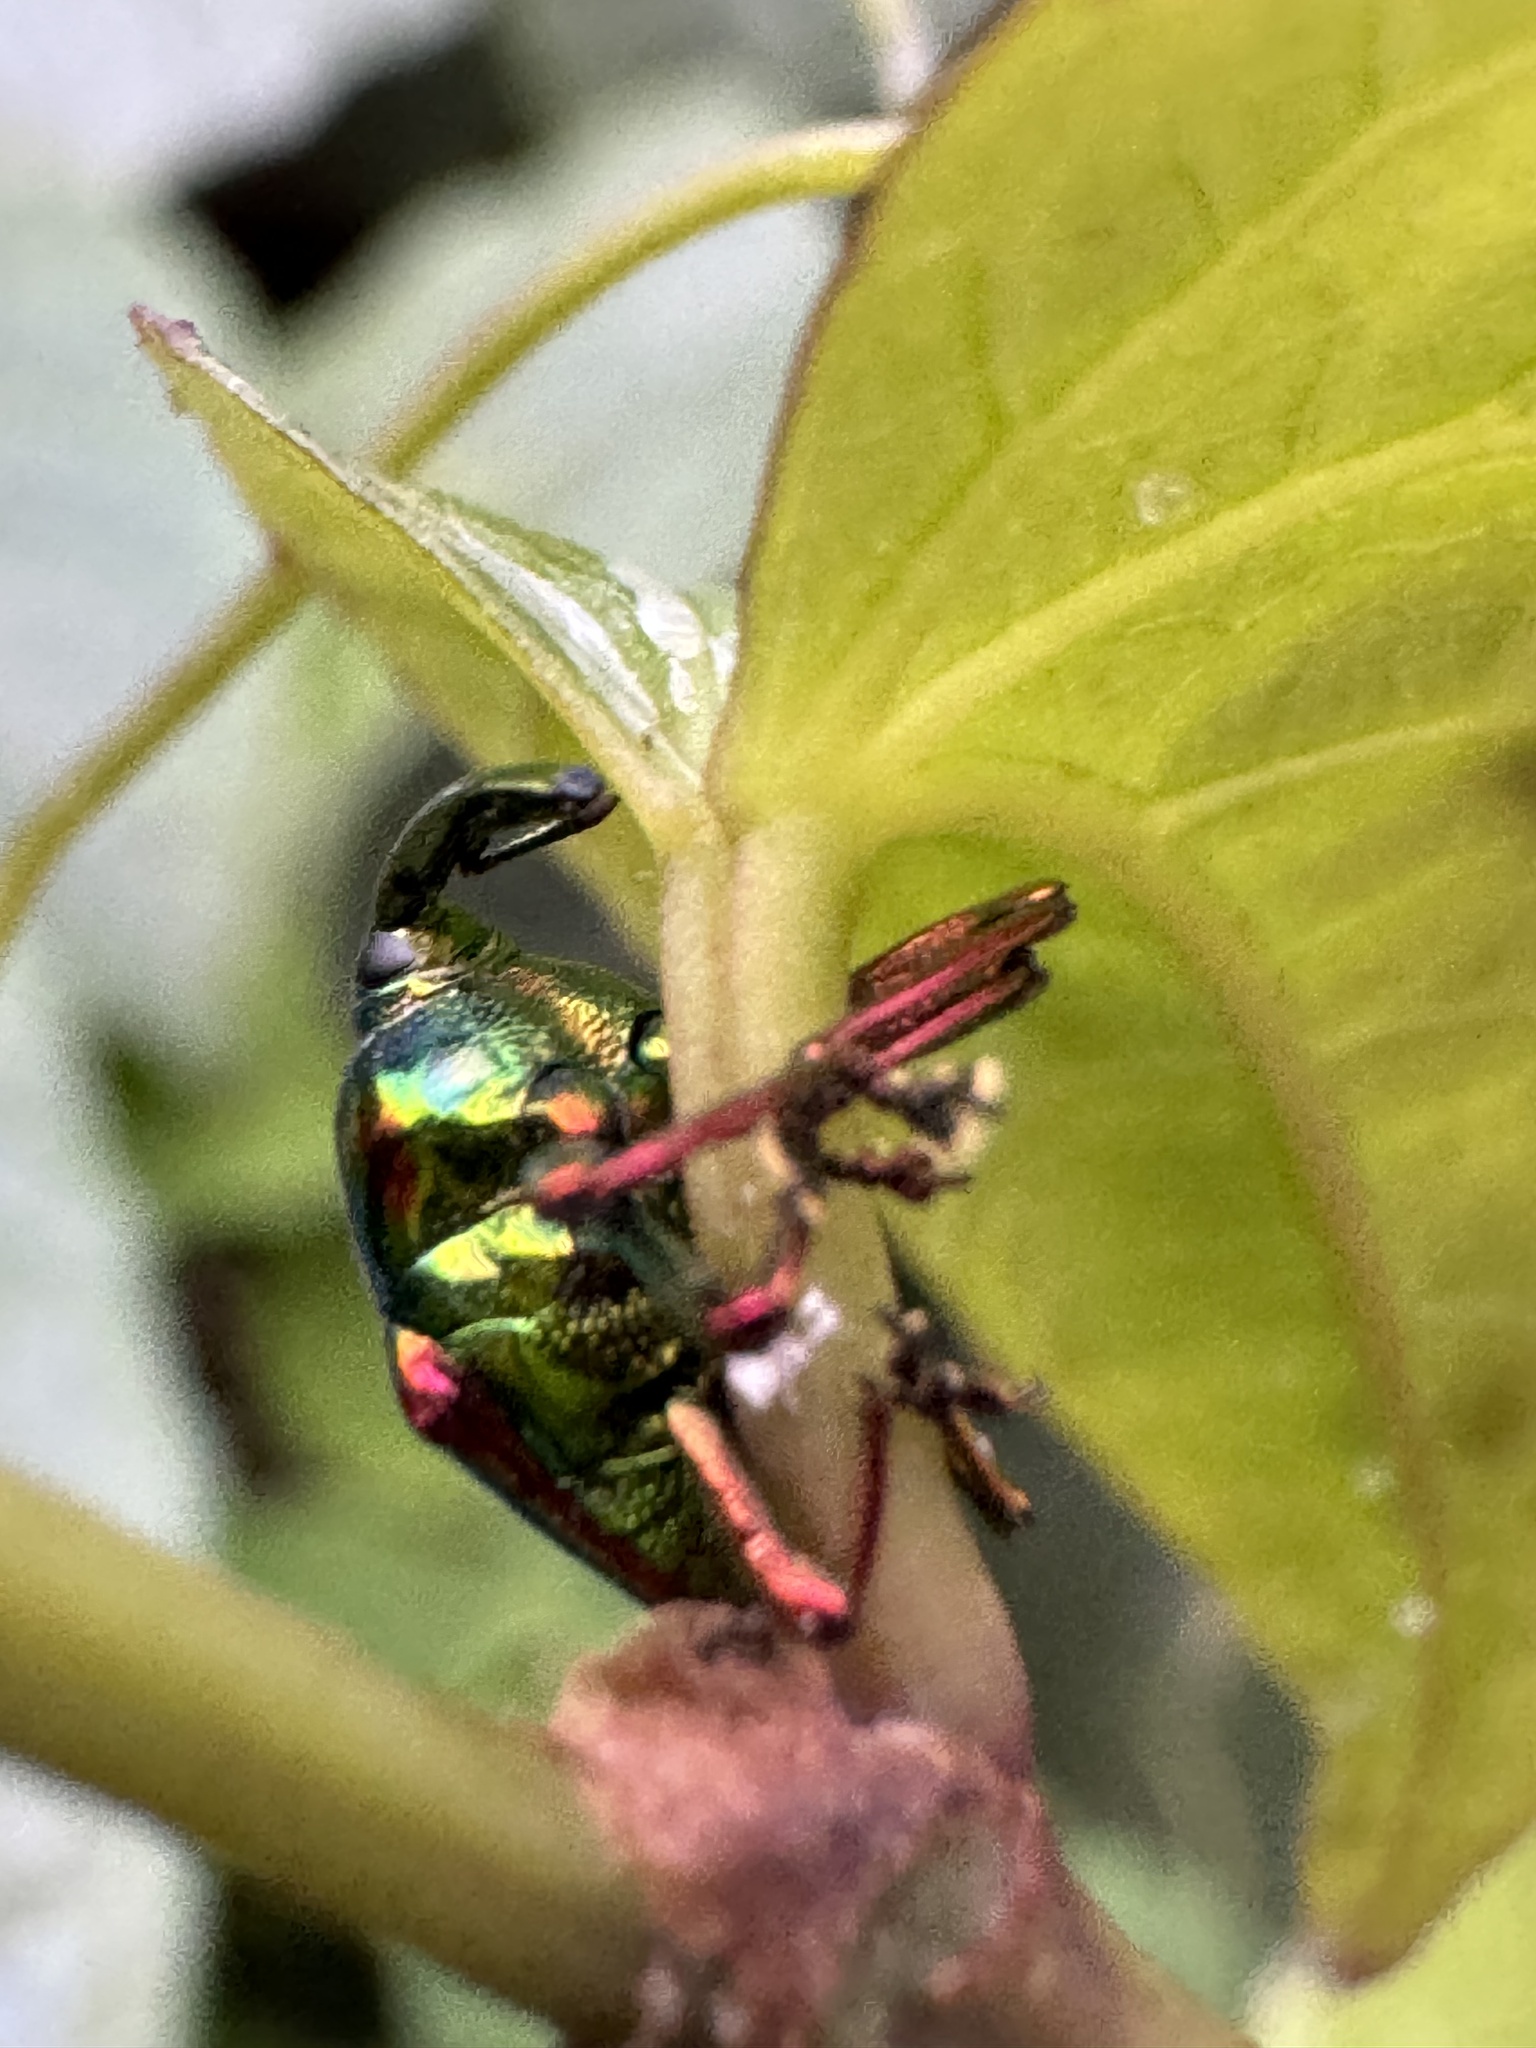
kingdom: Animalia
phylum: Arthropoda
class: Insecta
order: Coleoptera
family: Eurhynchidae
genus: Eurhinus
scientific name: Eurhinus magnificus
